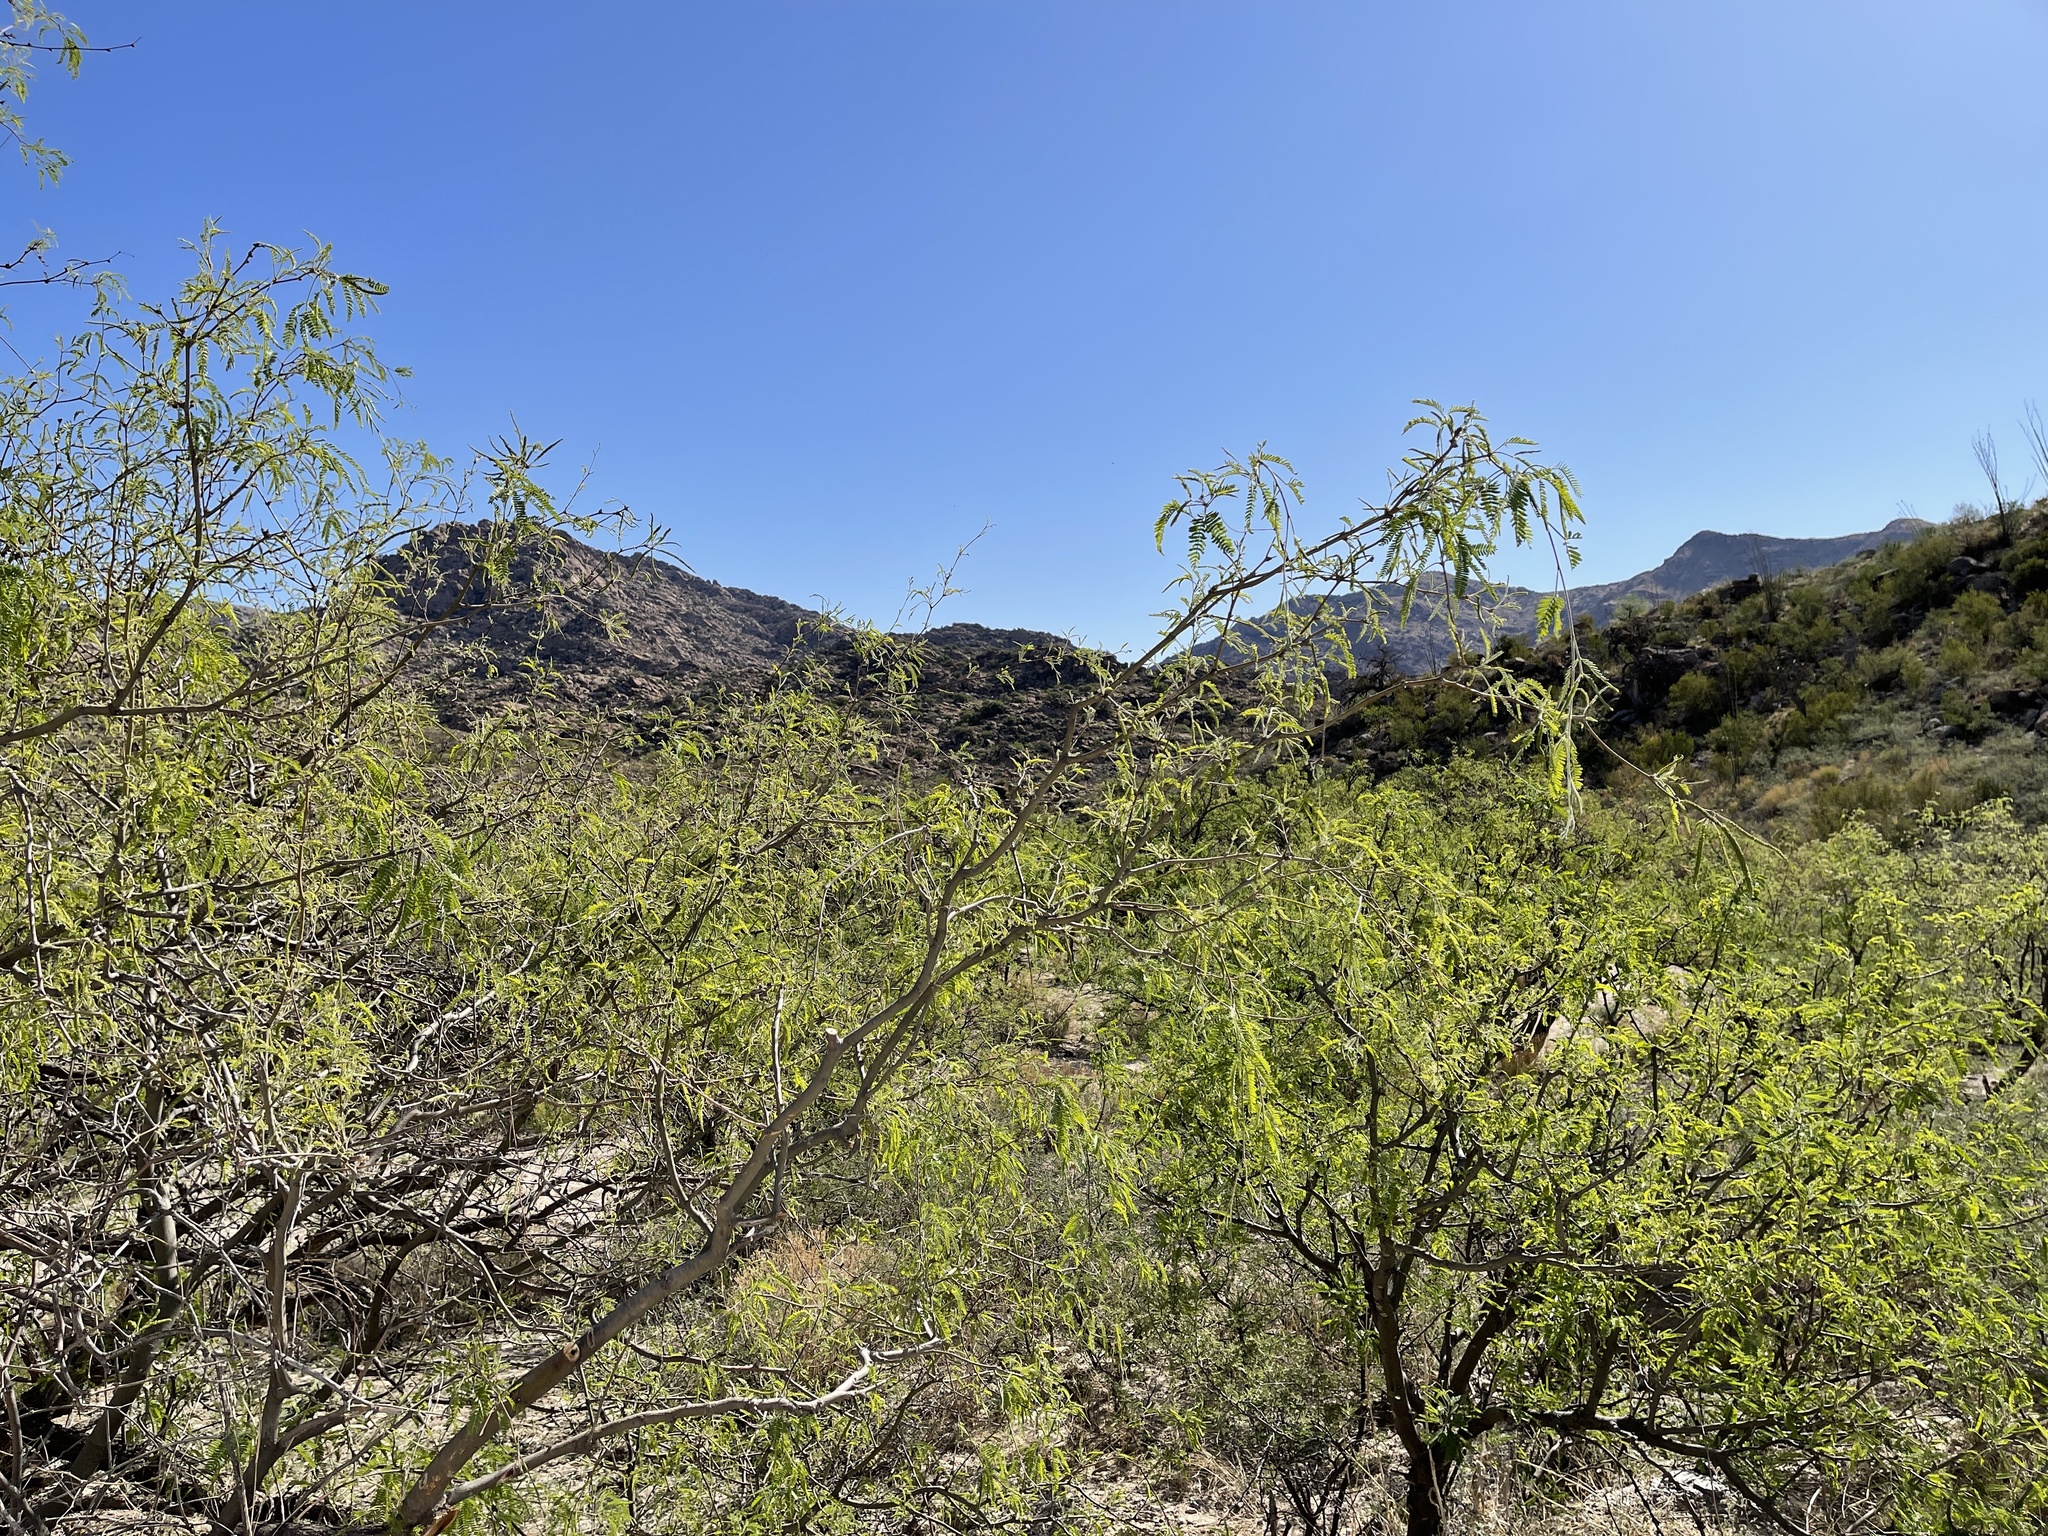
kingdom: Plantae
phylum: Tracheophyta
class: Magnoliopsida
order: Fabales
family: Fabaceae
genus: Prosopis
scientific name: Prosopis velutina
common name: Velvet mesquite
